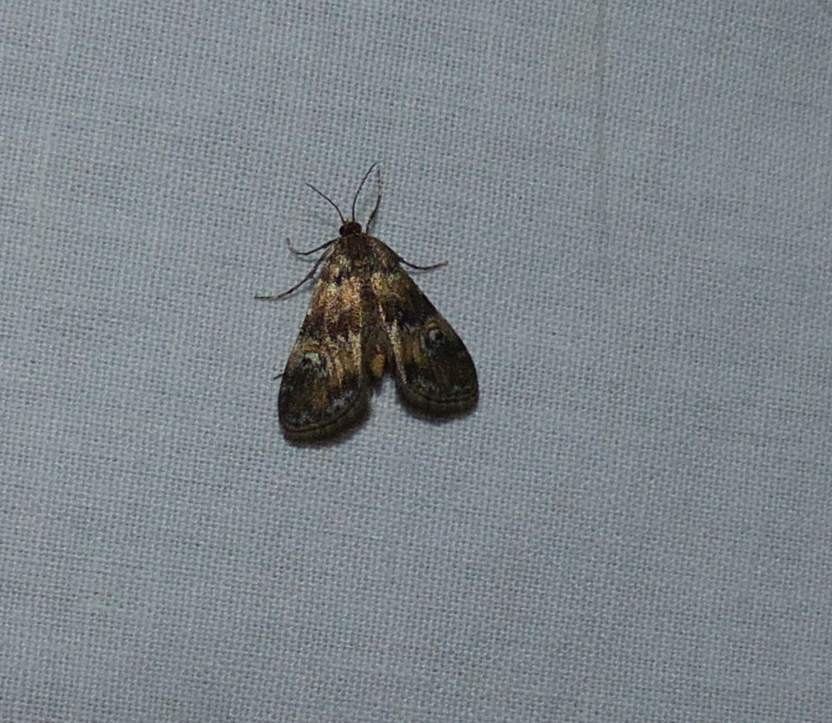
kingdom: Animalia
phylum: Arthropoda
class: Insecta
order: Lepidoptera
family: Crambidae
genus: Elophila
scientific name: Elophila obliteralis
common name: Waterlily leafcutter moth
